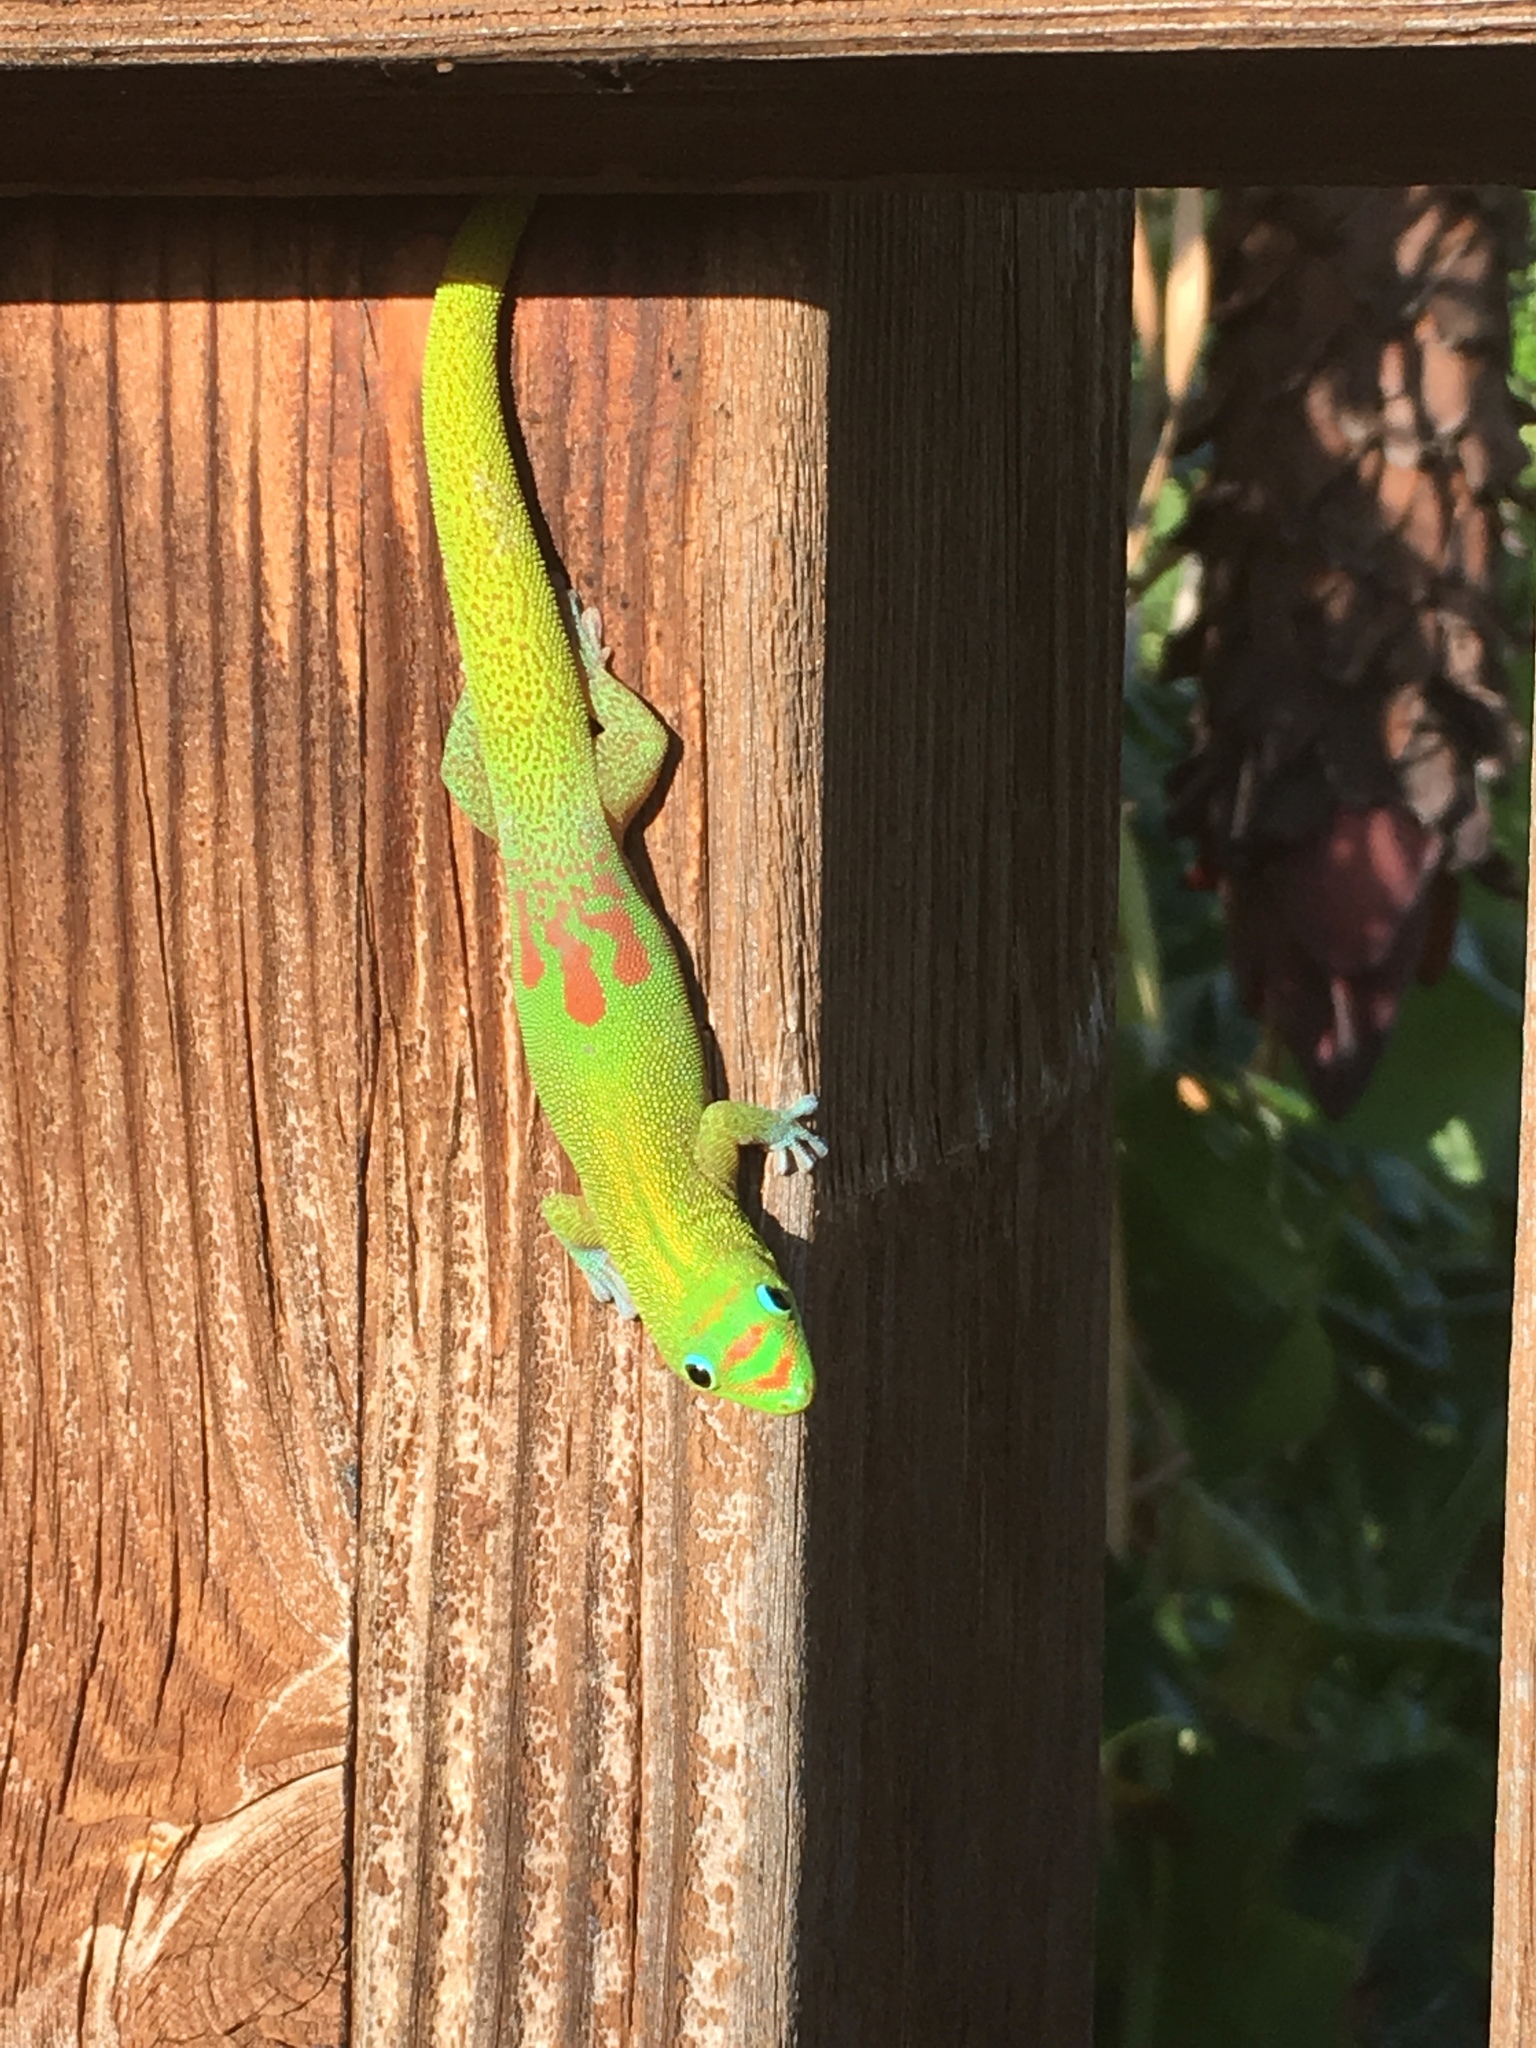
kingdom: Animalia
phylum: Chordata
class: Squamata
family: Gekkonidae
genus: Phelsuma
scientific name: Phelsuma laticauda
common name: Gold dust day gecko
